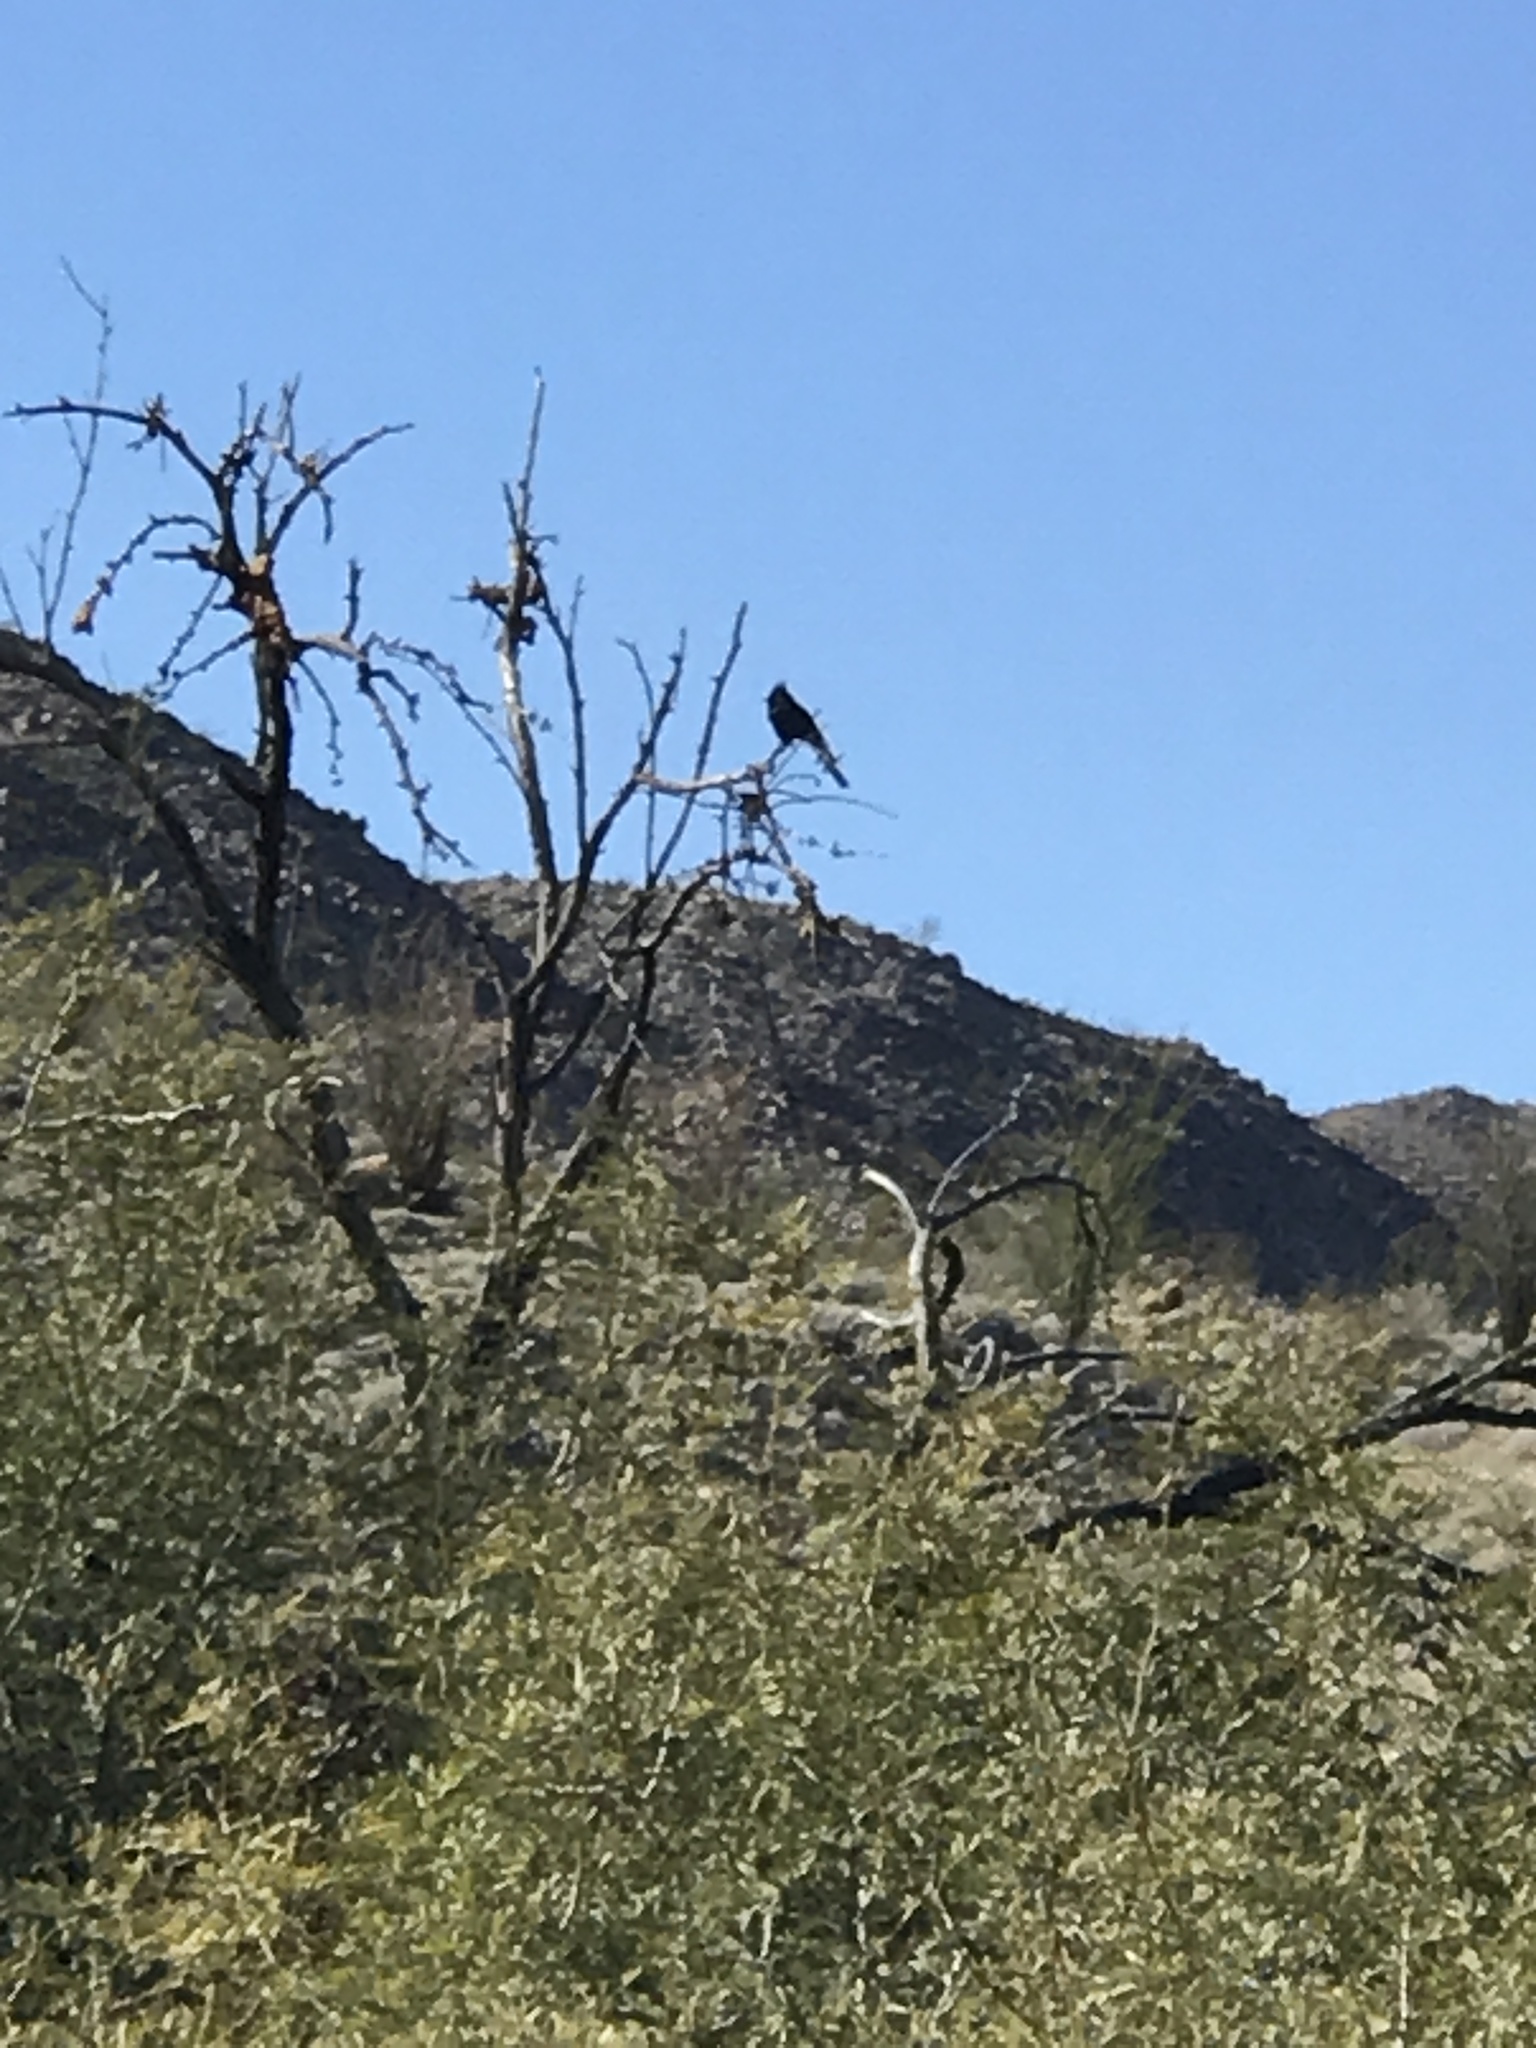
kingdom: Animalia
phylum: Chordata
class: Aves
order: Passeriformes
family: Ptilogonatidae
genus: Phainopepla
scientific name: Phainopepla nitens
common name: Phainopepla
